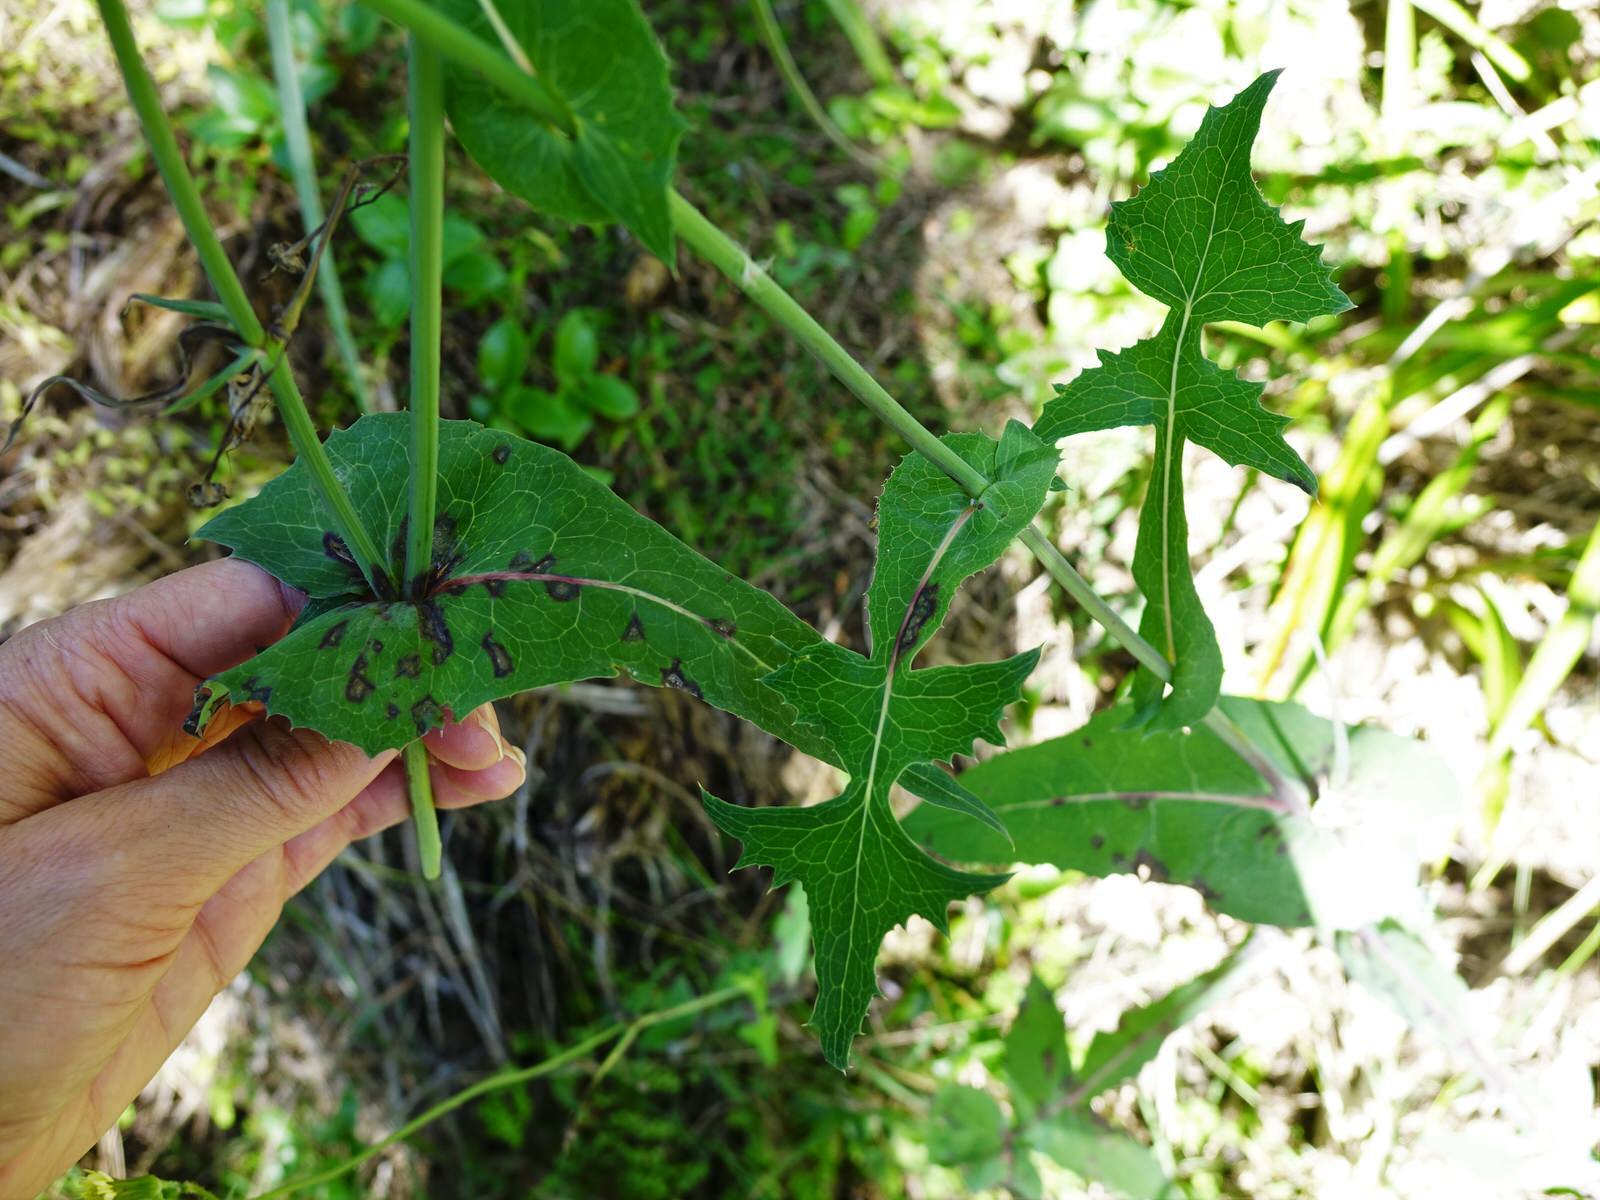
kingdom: Plantae
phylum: Tracheophyta
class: Magnoliopsida
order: Asterales
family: Asteraceae
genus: Sonchus
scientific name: Sonchus oleraceus
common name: Common sowthistle
